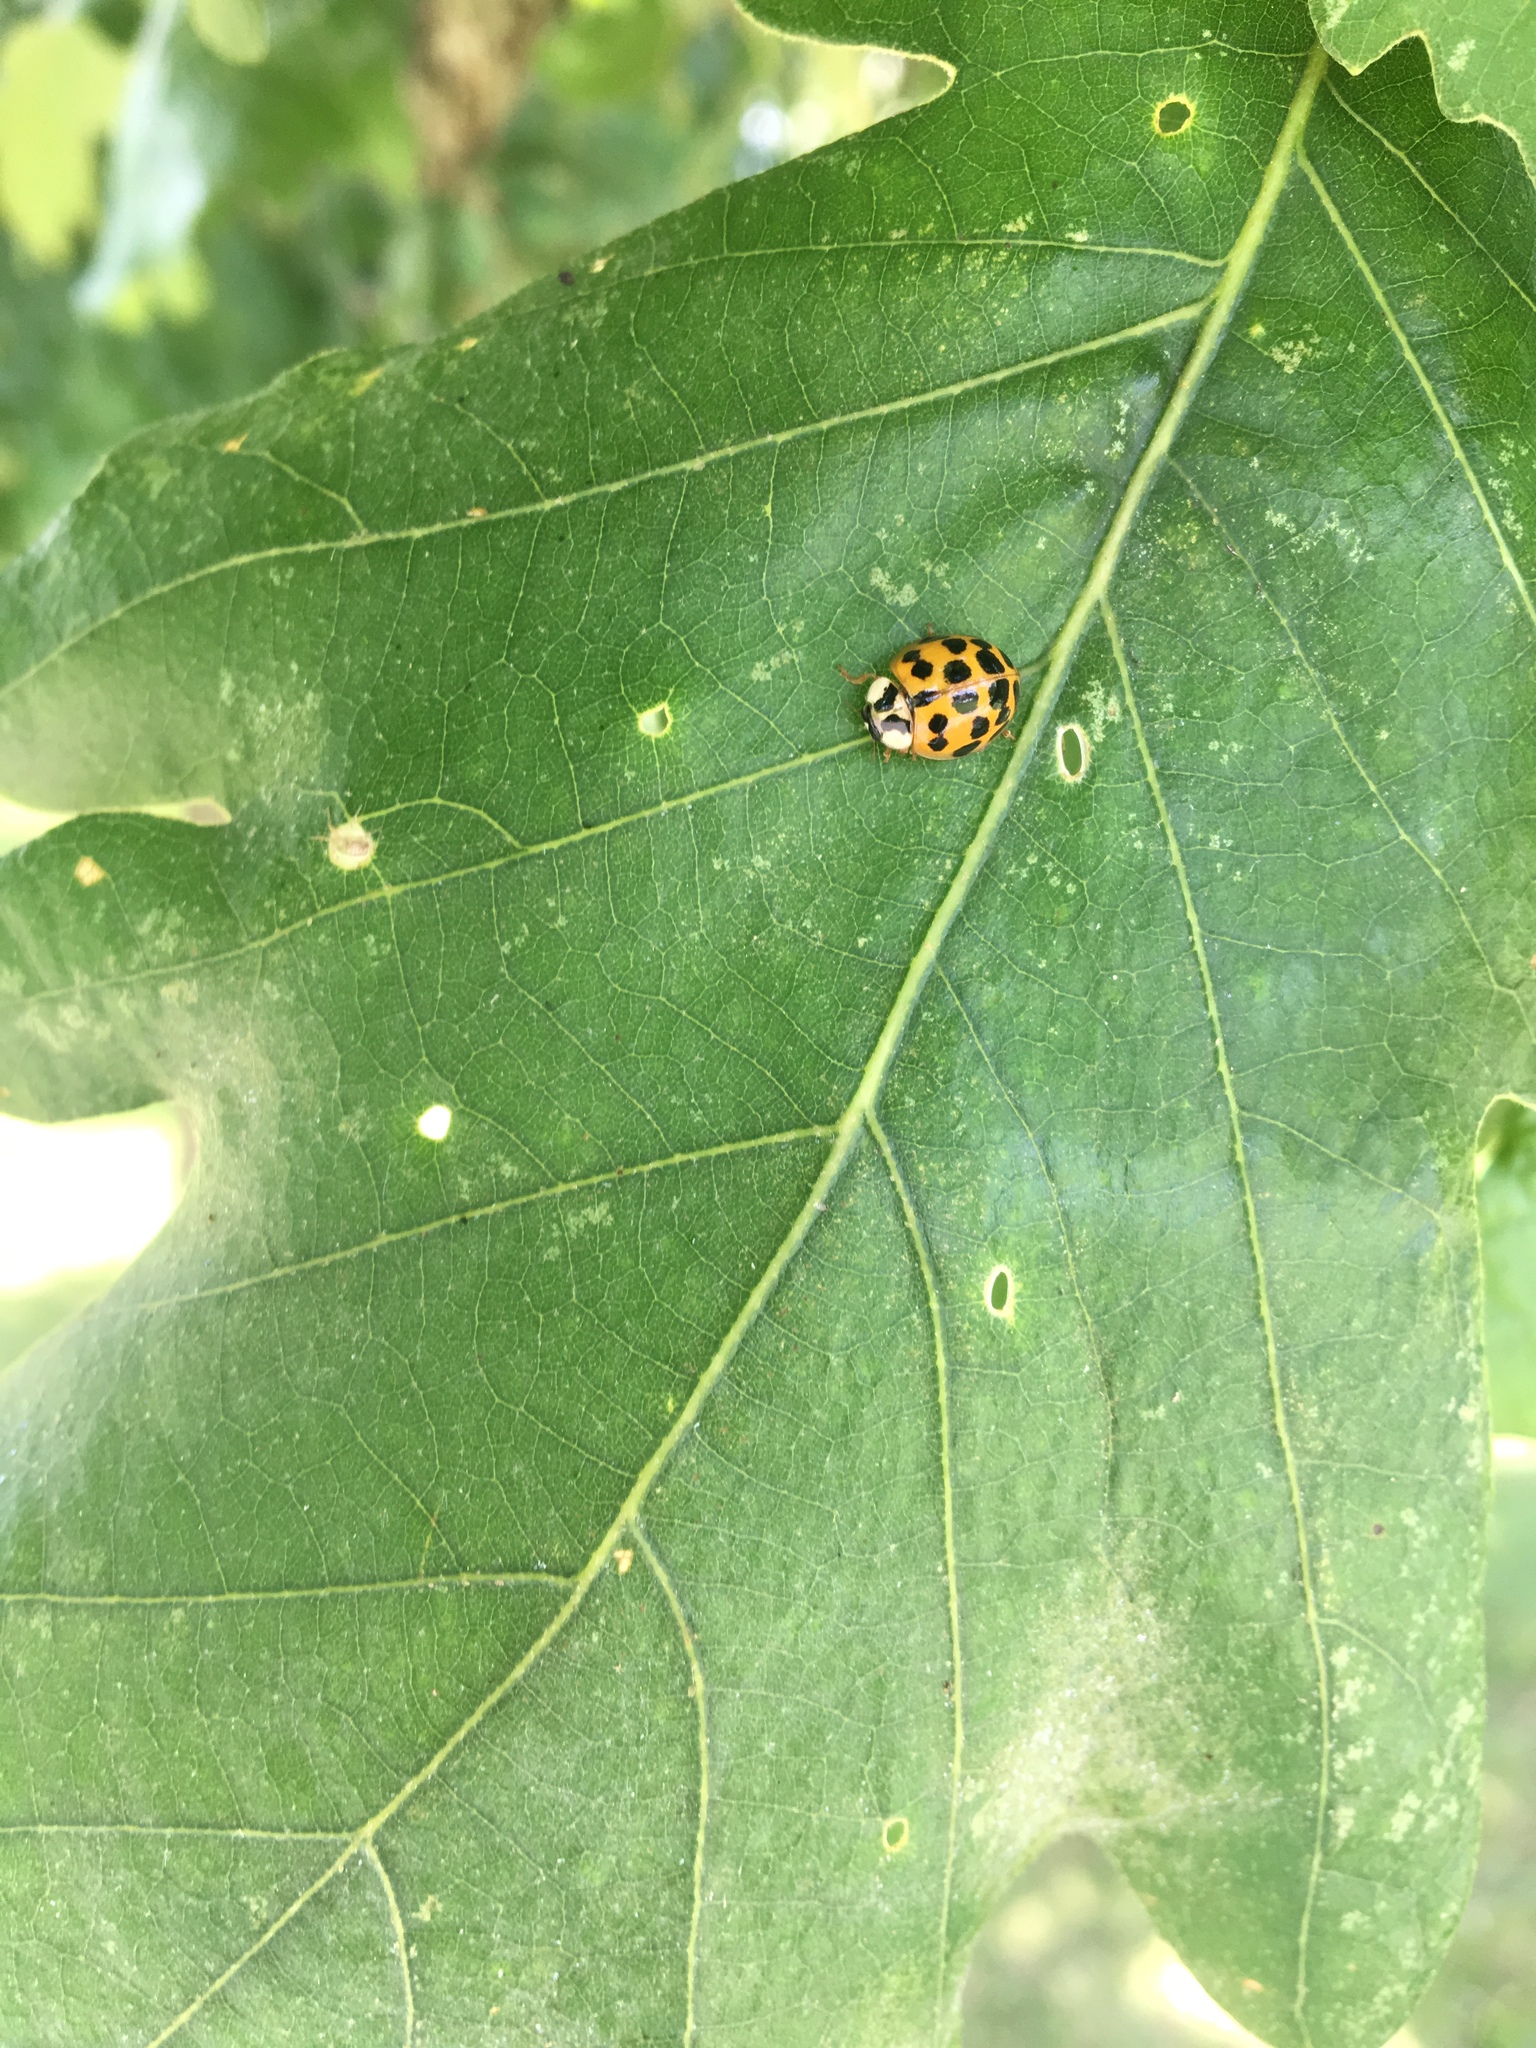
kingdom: Animalia
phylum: Arthropoda
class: Insecta
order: Coleoptera
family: Coccinellidae
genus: Harmonia
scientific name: Harmonia axyridis
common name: Harlequin ladybird
